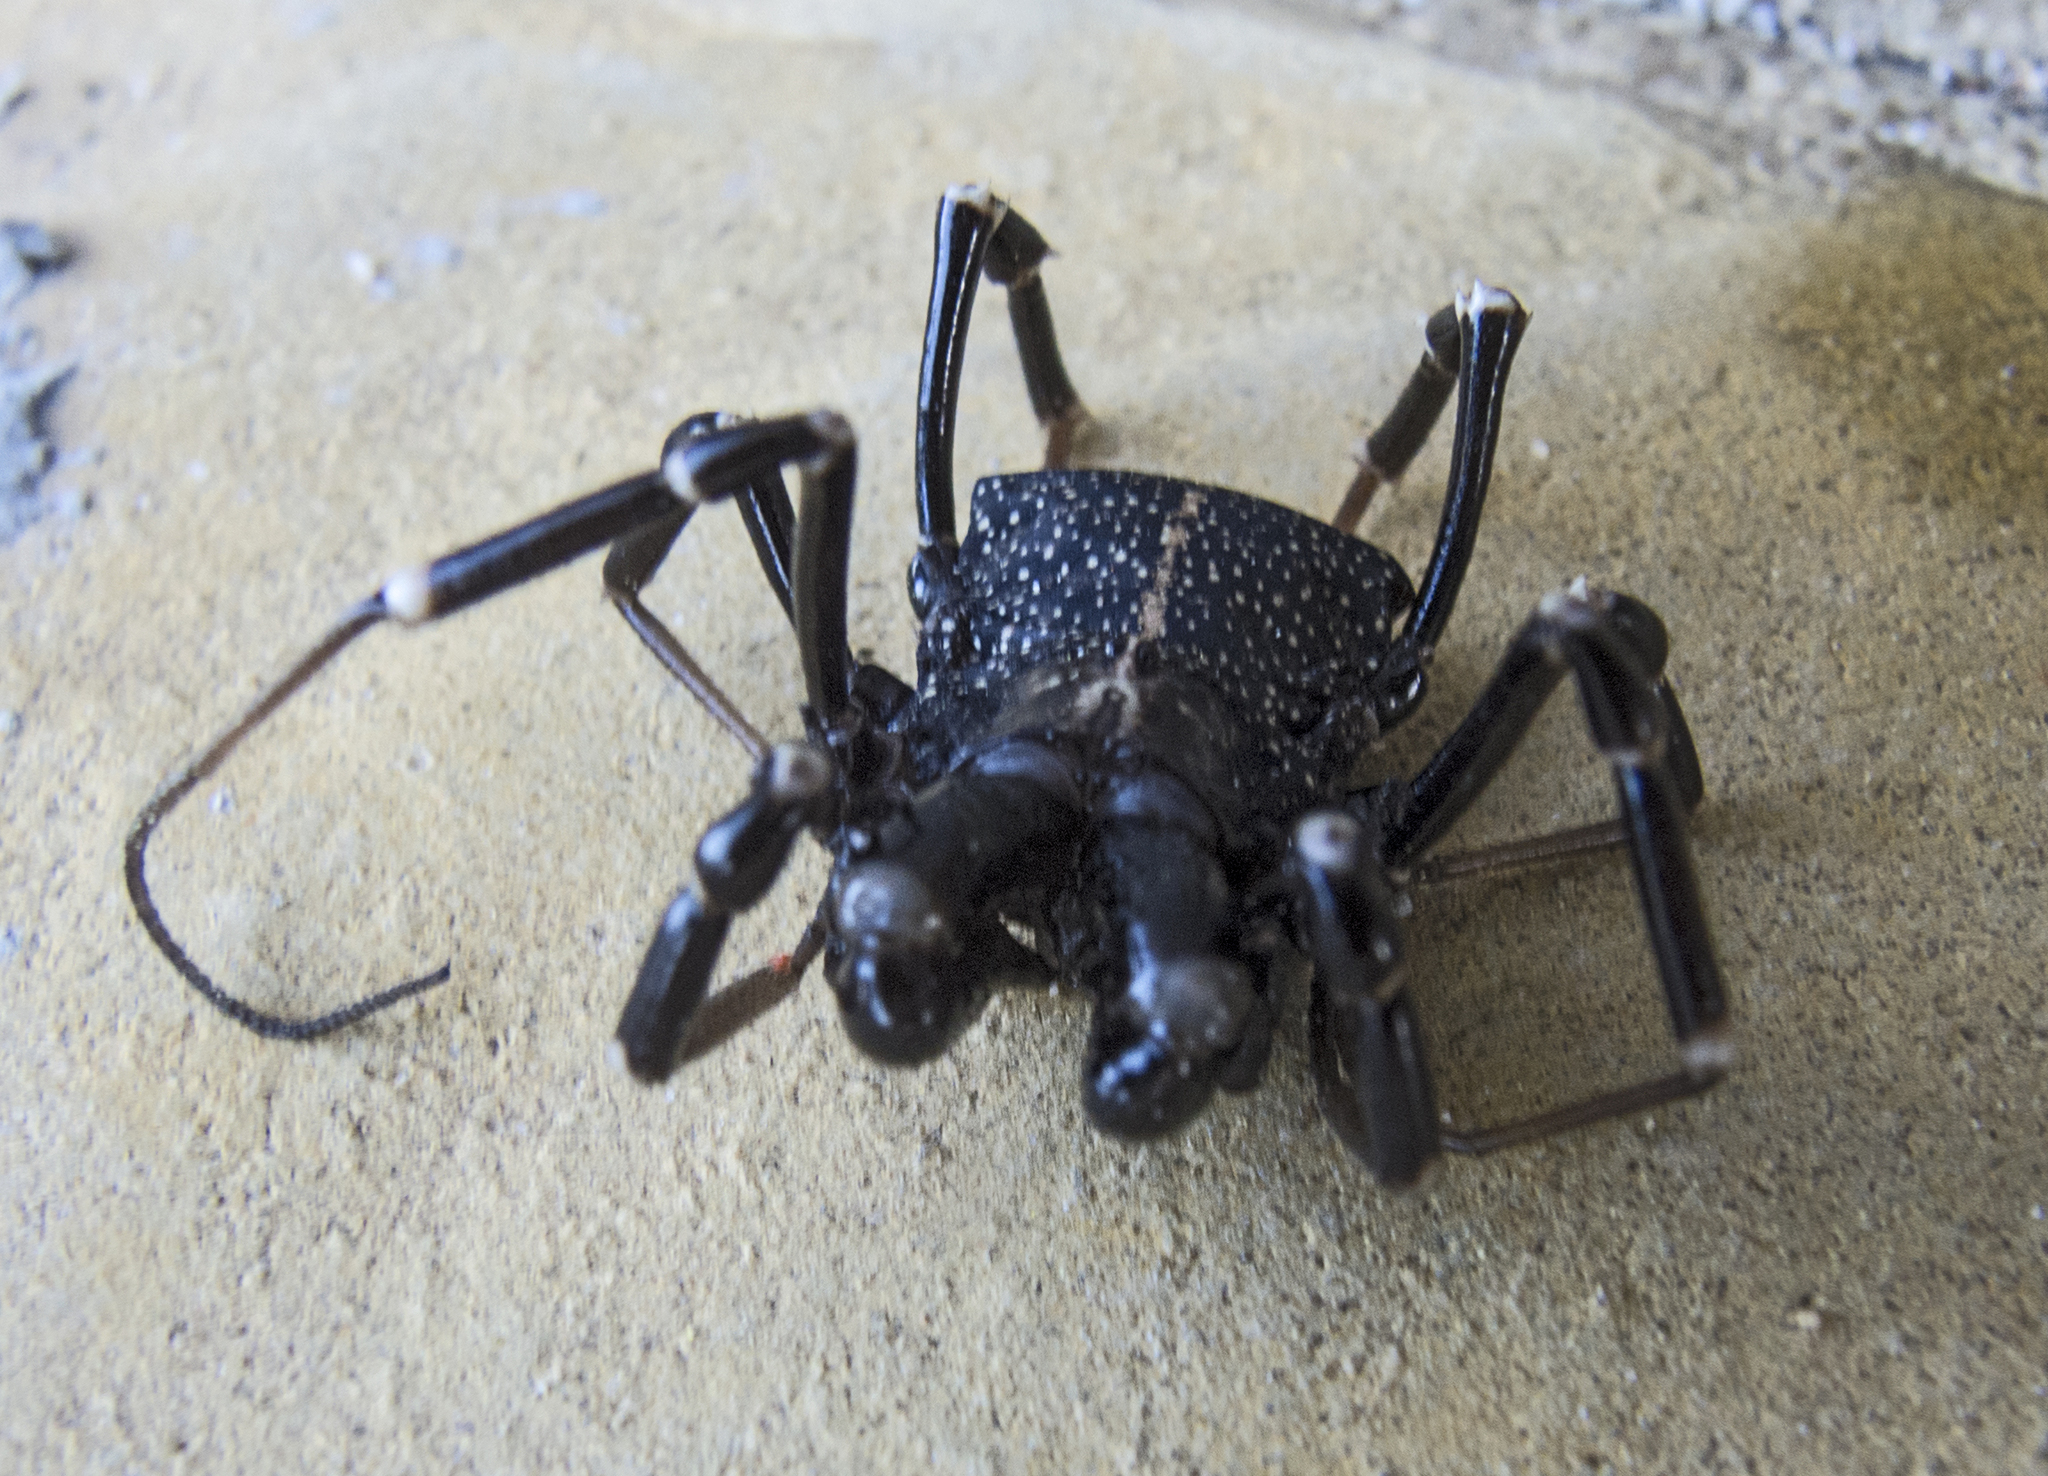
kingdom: Animalia
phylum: Arthropoda
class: Arachnida
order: Opiliones
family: Phalangiidae
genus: Egaenus
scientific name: Egaenus convexus
